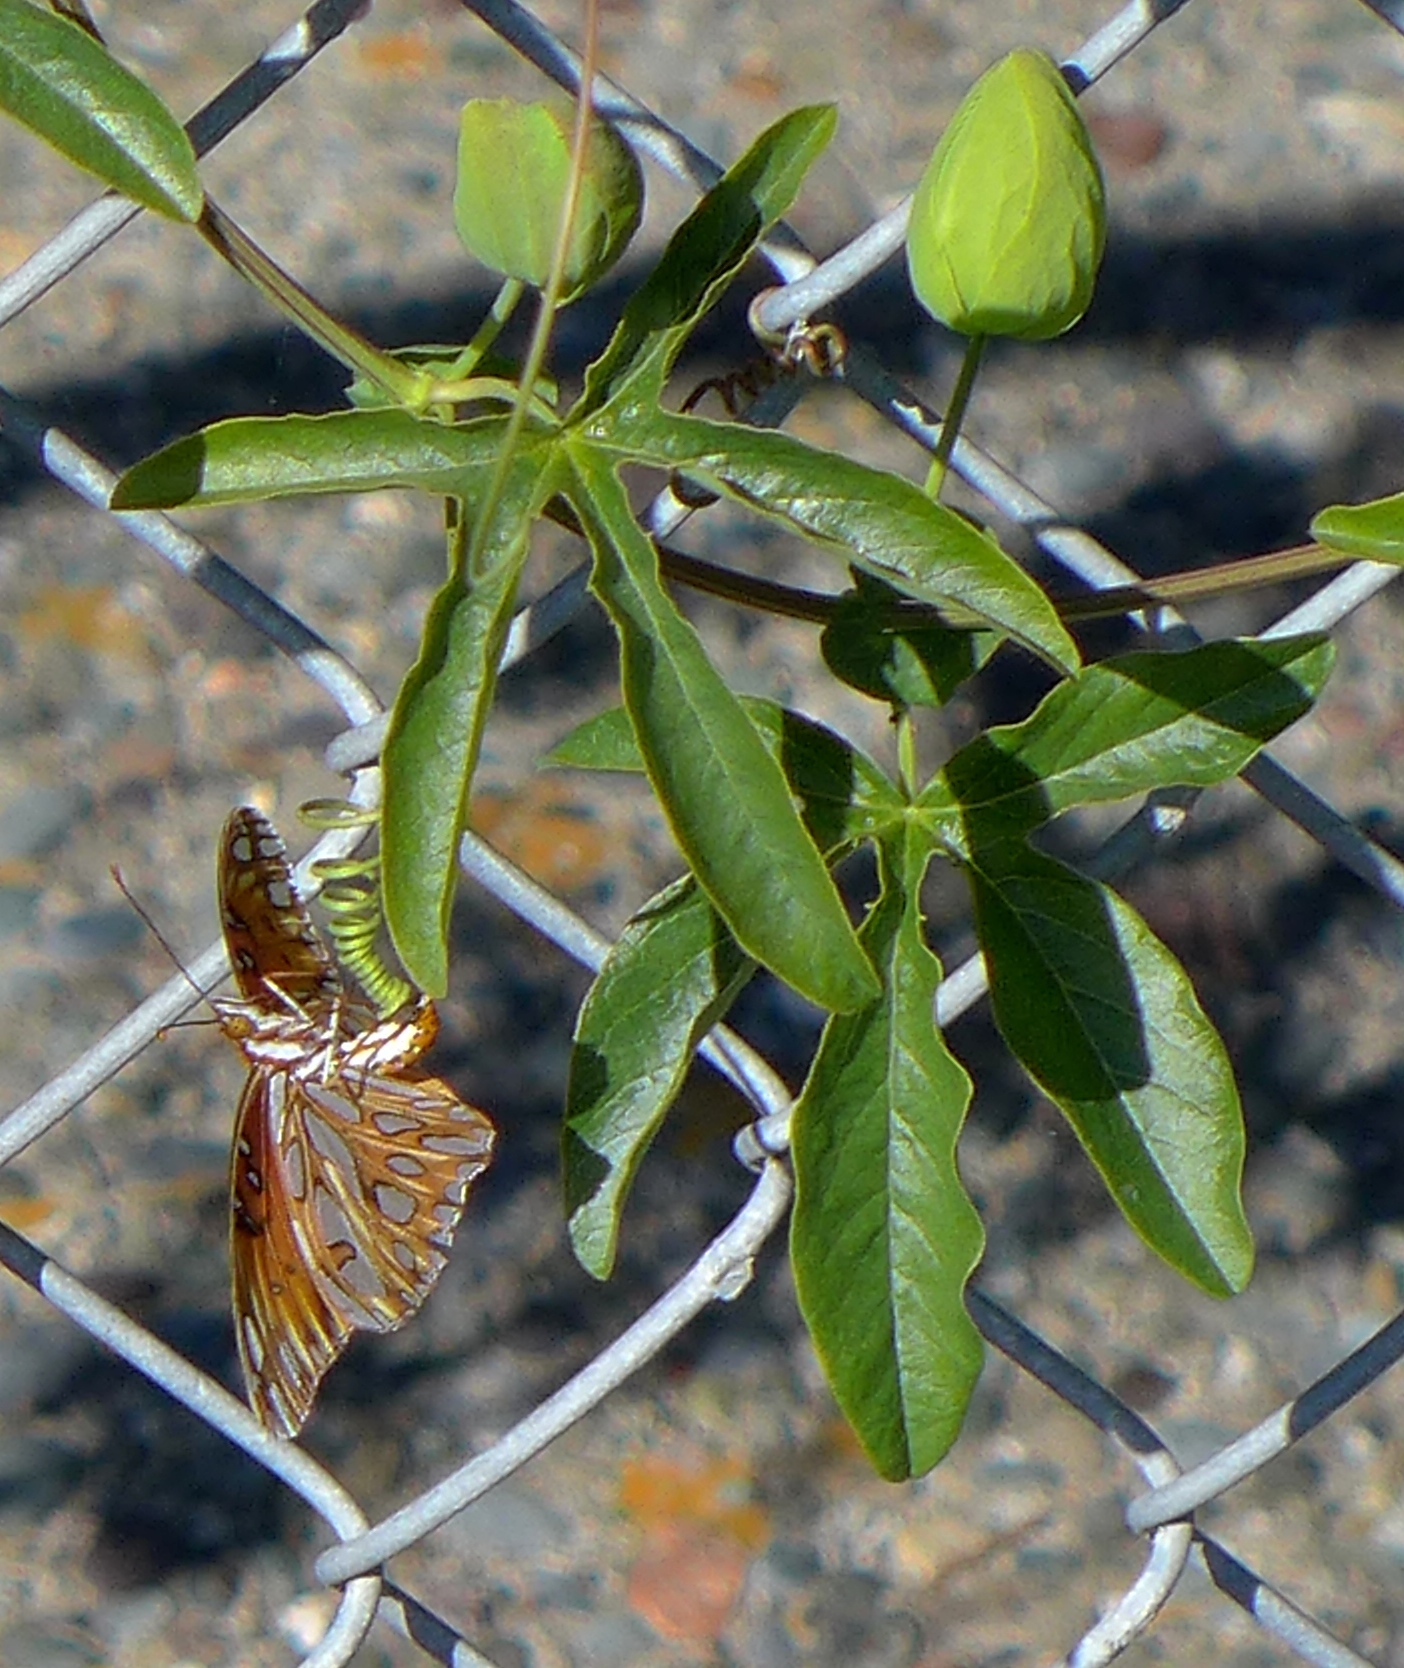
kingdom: Animalia
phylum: Arthropoda
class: Insecta
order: Lepidoptera
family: Nymphalidae
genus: Dione
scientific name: Dione vanillae
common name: Gulf fritillary
